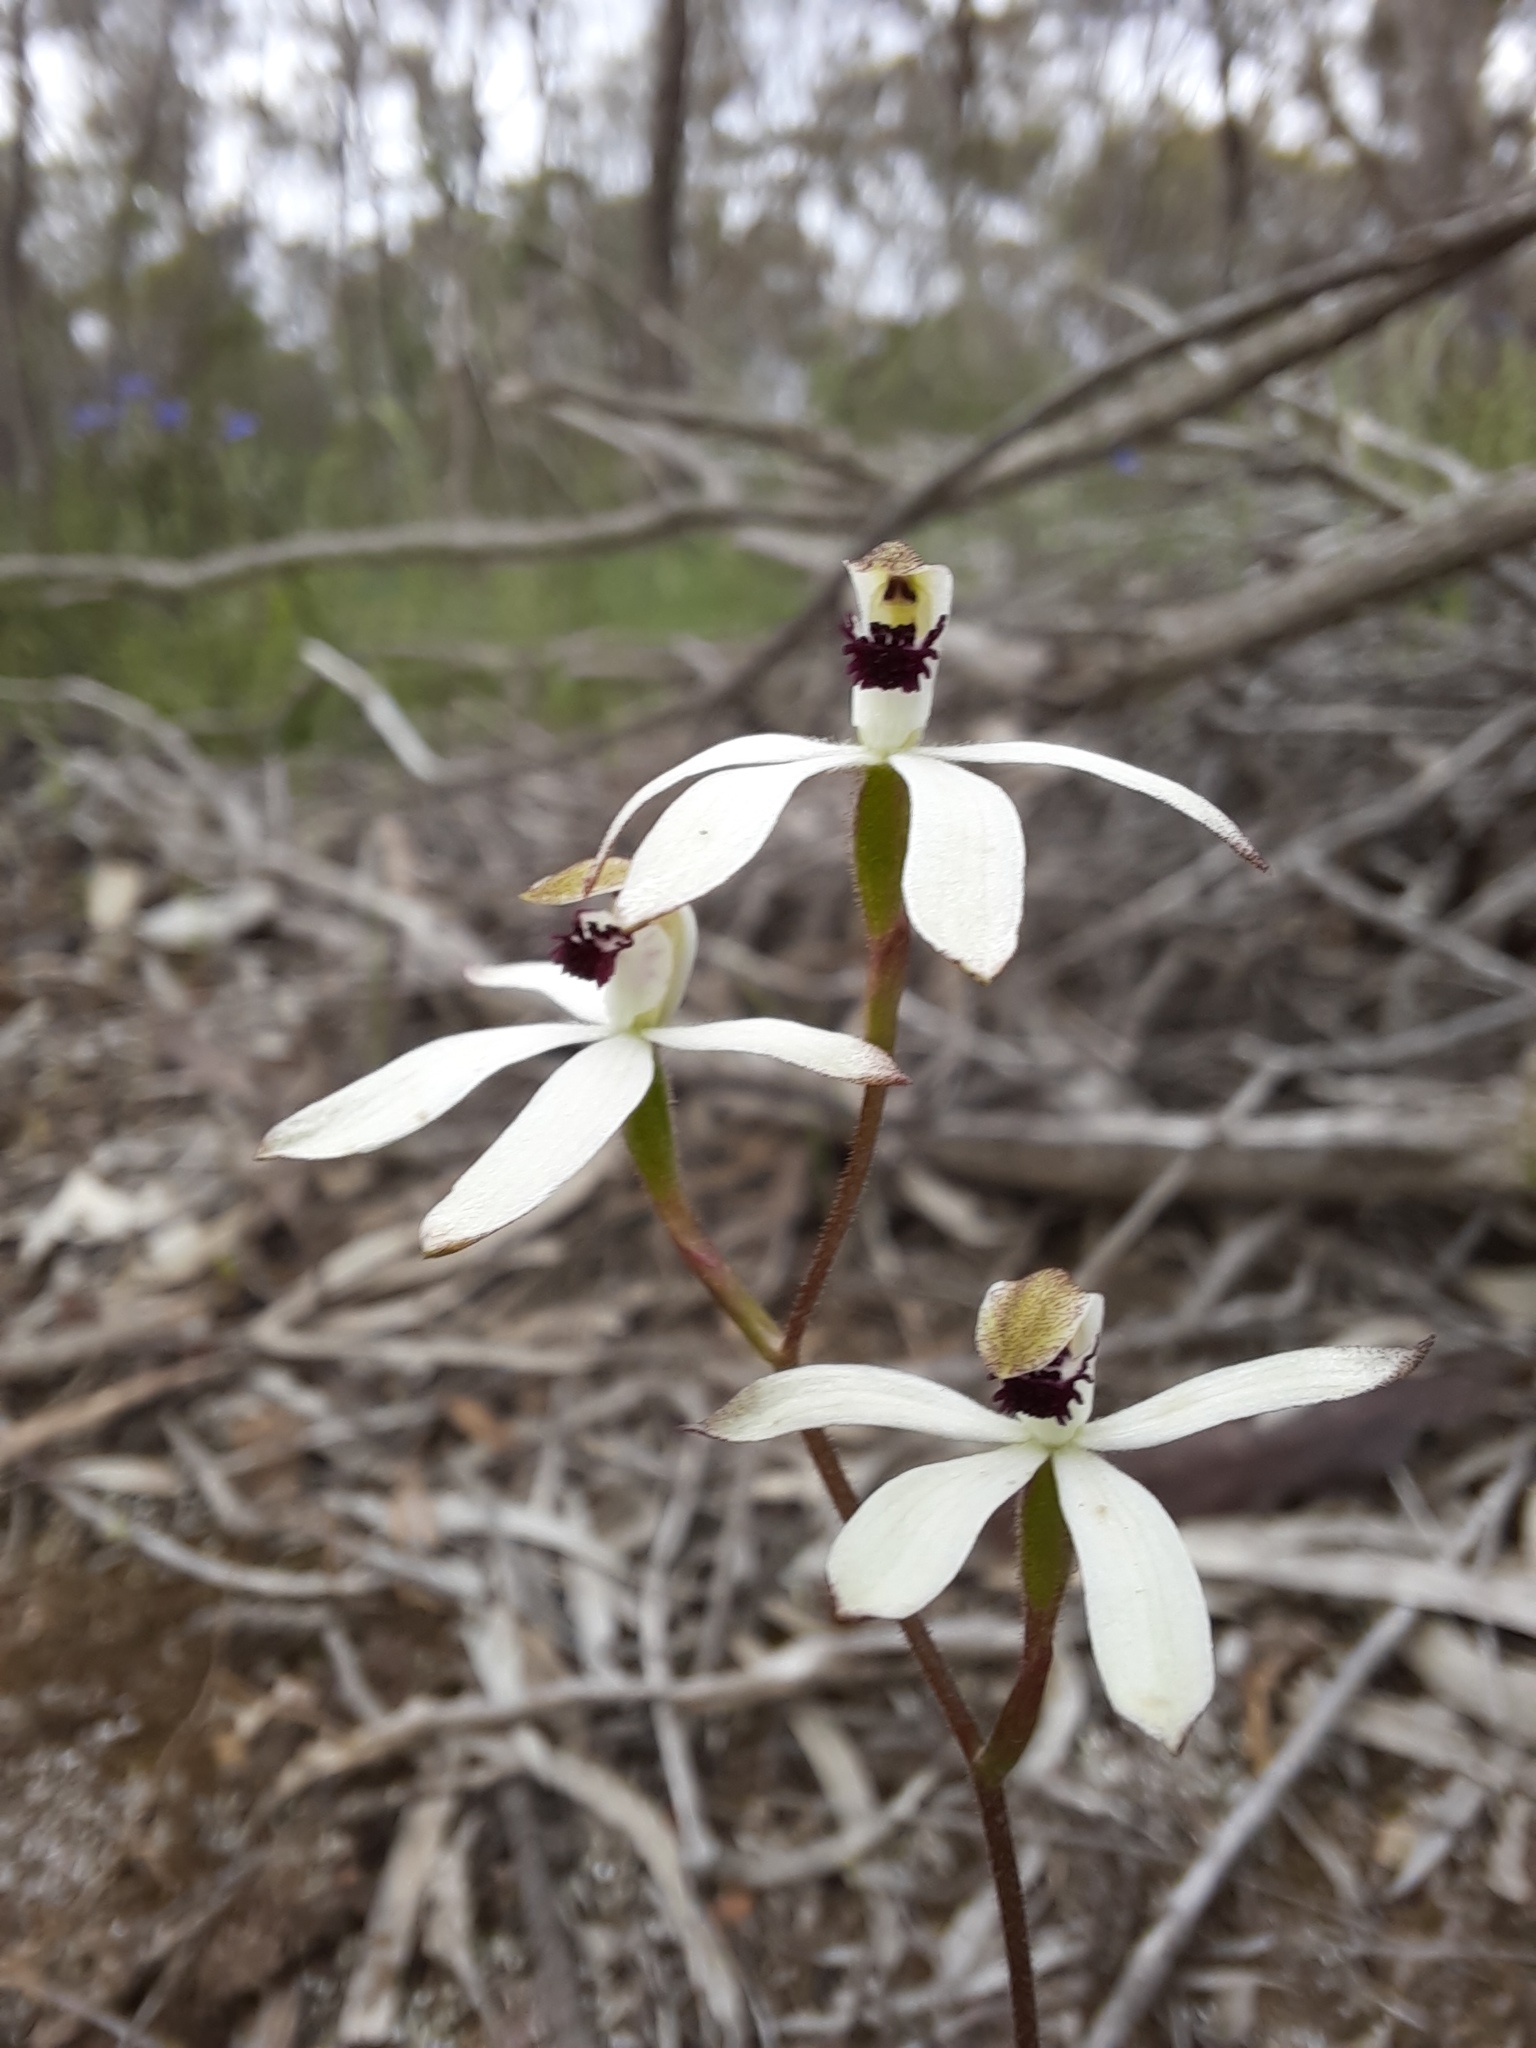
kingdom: Plantae
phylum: Tracheophyta
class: Liliopsida
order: Asparagales
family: Orchidaceae
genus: Caladenia
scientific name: Caladenia cucullata
